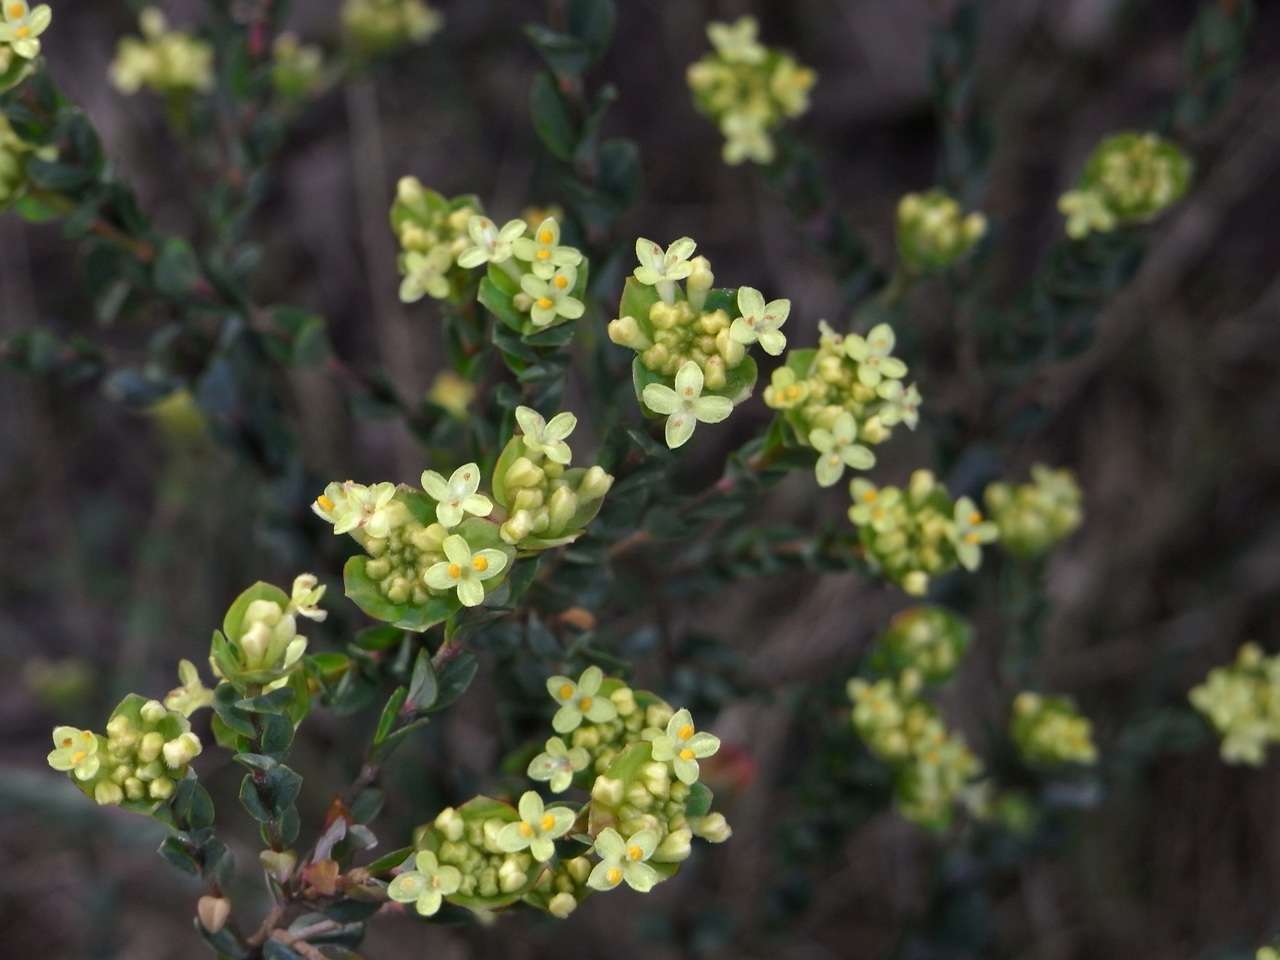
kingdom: Plantae
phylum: Tracheophyta
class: Magnoliopsida
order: Malvales
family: Thymelaeaceae
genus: Pimelea
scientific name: Pimelea flava
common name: Yellow riceflower
